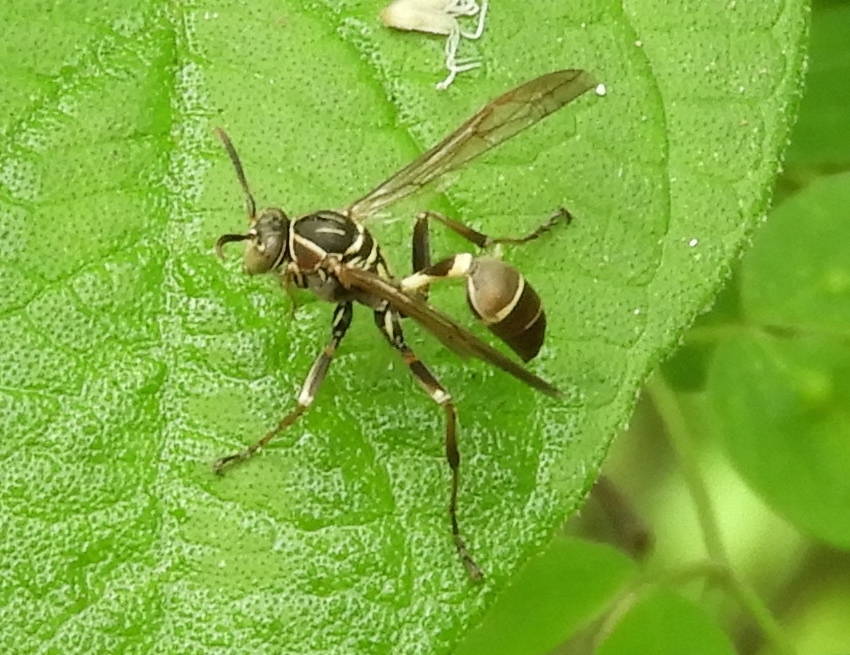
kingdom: Animalia
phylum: Arthropoda
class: Insecta
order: Hymenoptera
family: Vespidae
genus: Mischocyttarus
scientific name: Mischocyttarus mexicanus
